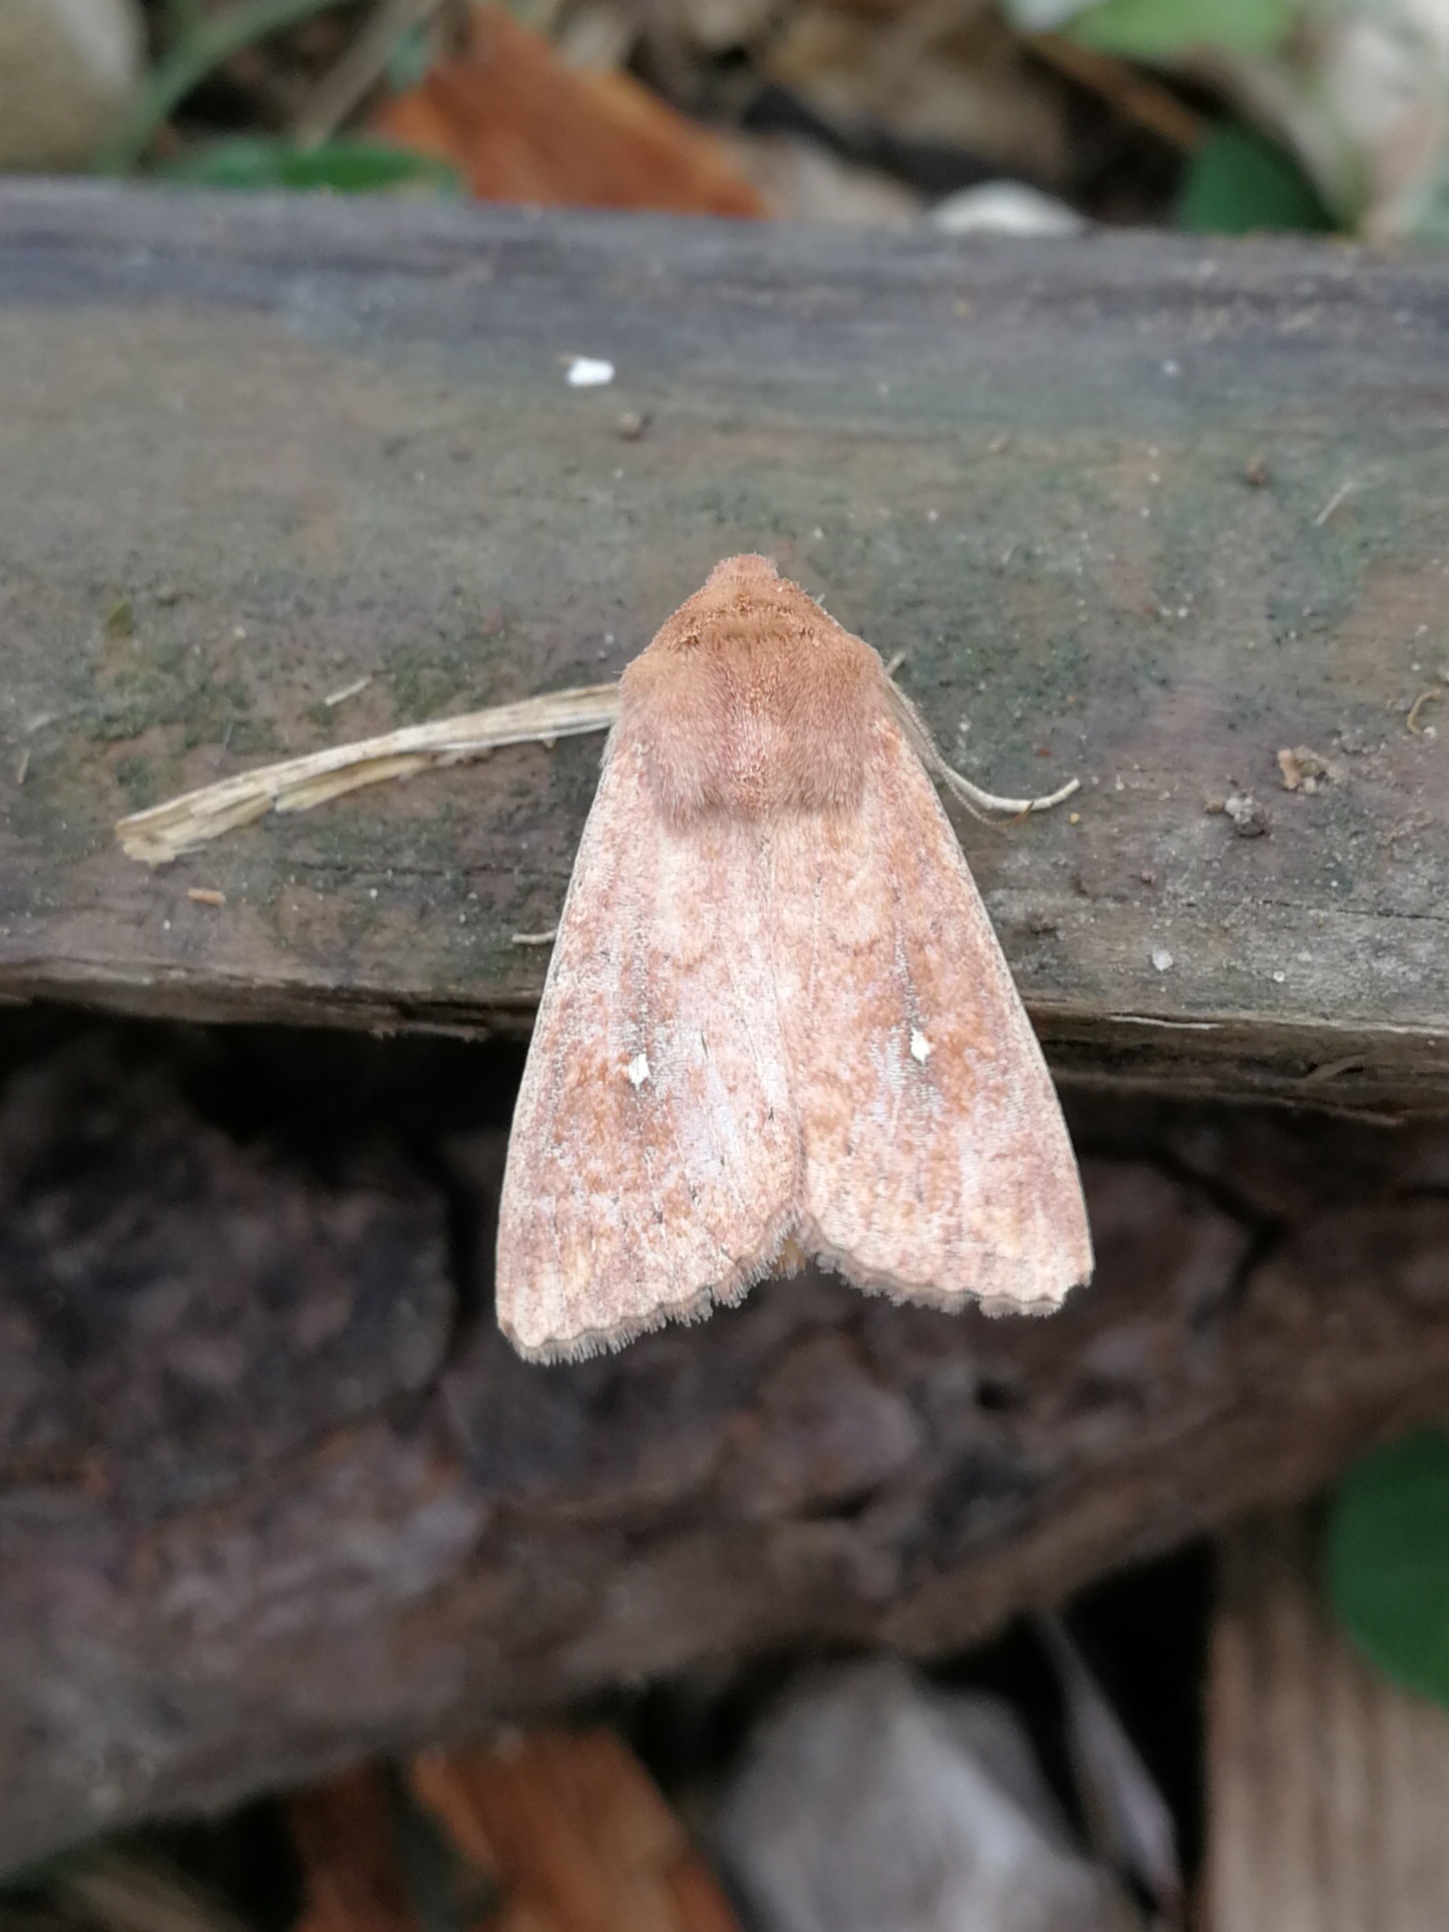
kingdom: Animalia
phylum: Arthropoda
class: Insecta
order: Lepidoptera
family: Noctuidae
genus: Mythimna
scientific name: Mythimna albipuncta
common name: White-point
